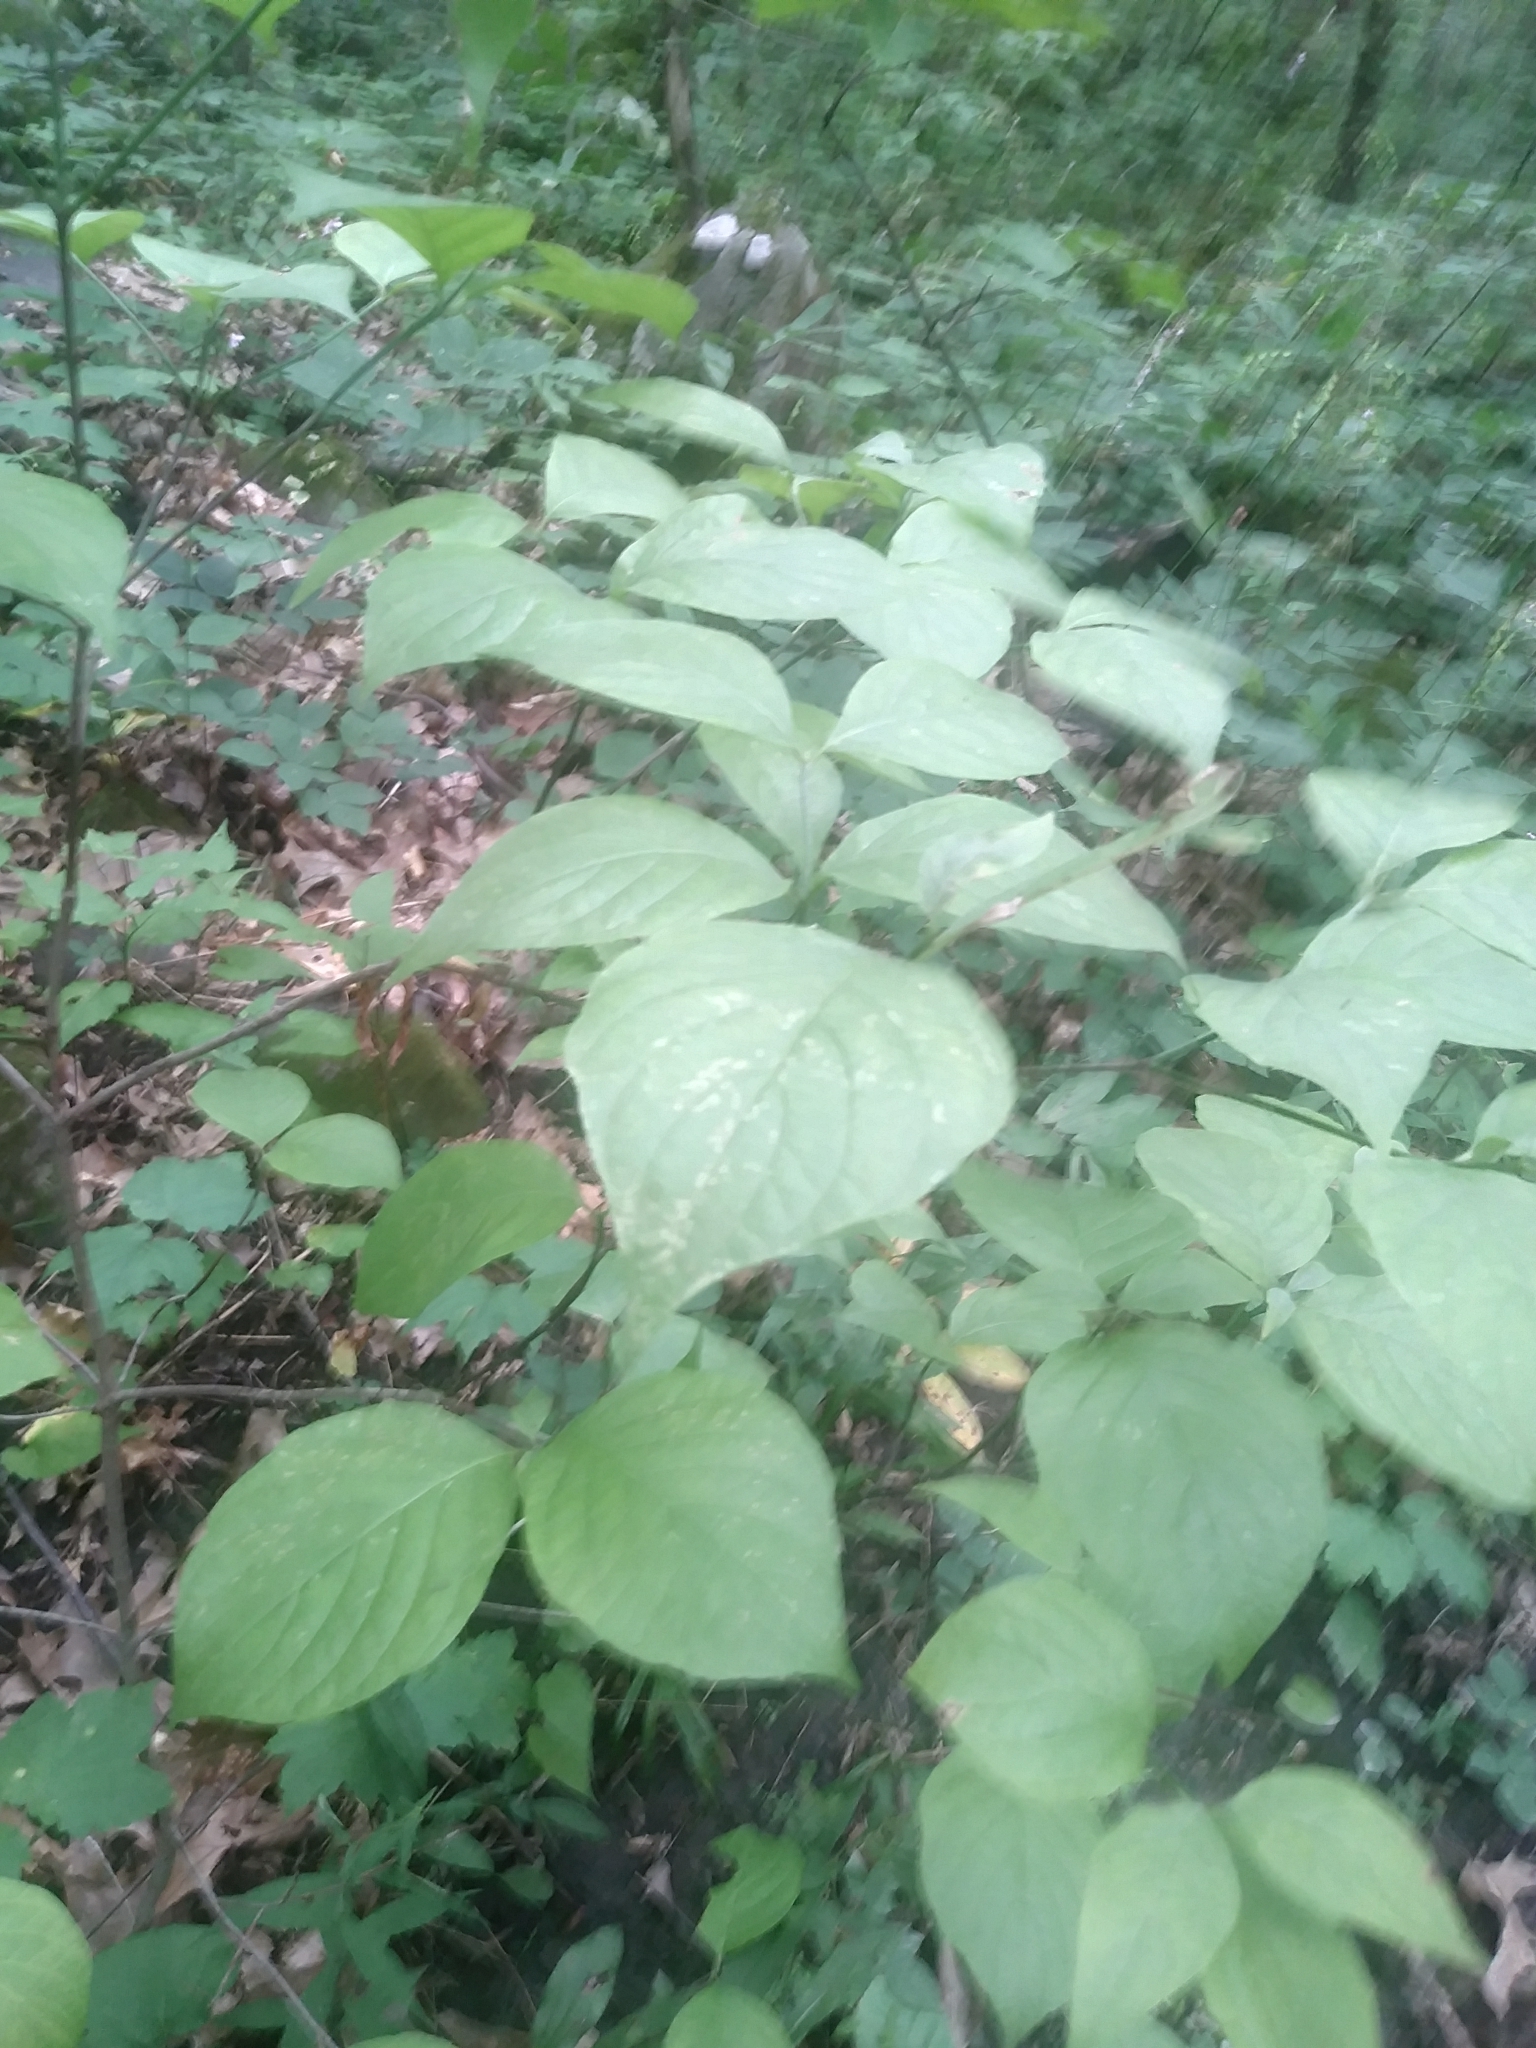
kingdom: Plantae
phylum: Tracheophyta
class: Magnoliopsida
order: Cornales
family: Cornaceae
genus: Cornus
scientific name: Cornus florida
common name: Flowering dogwood
